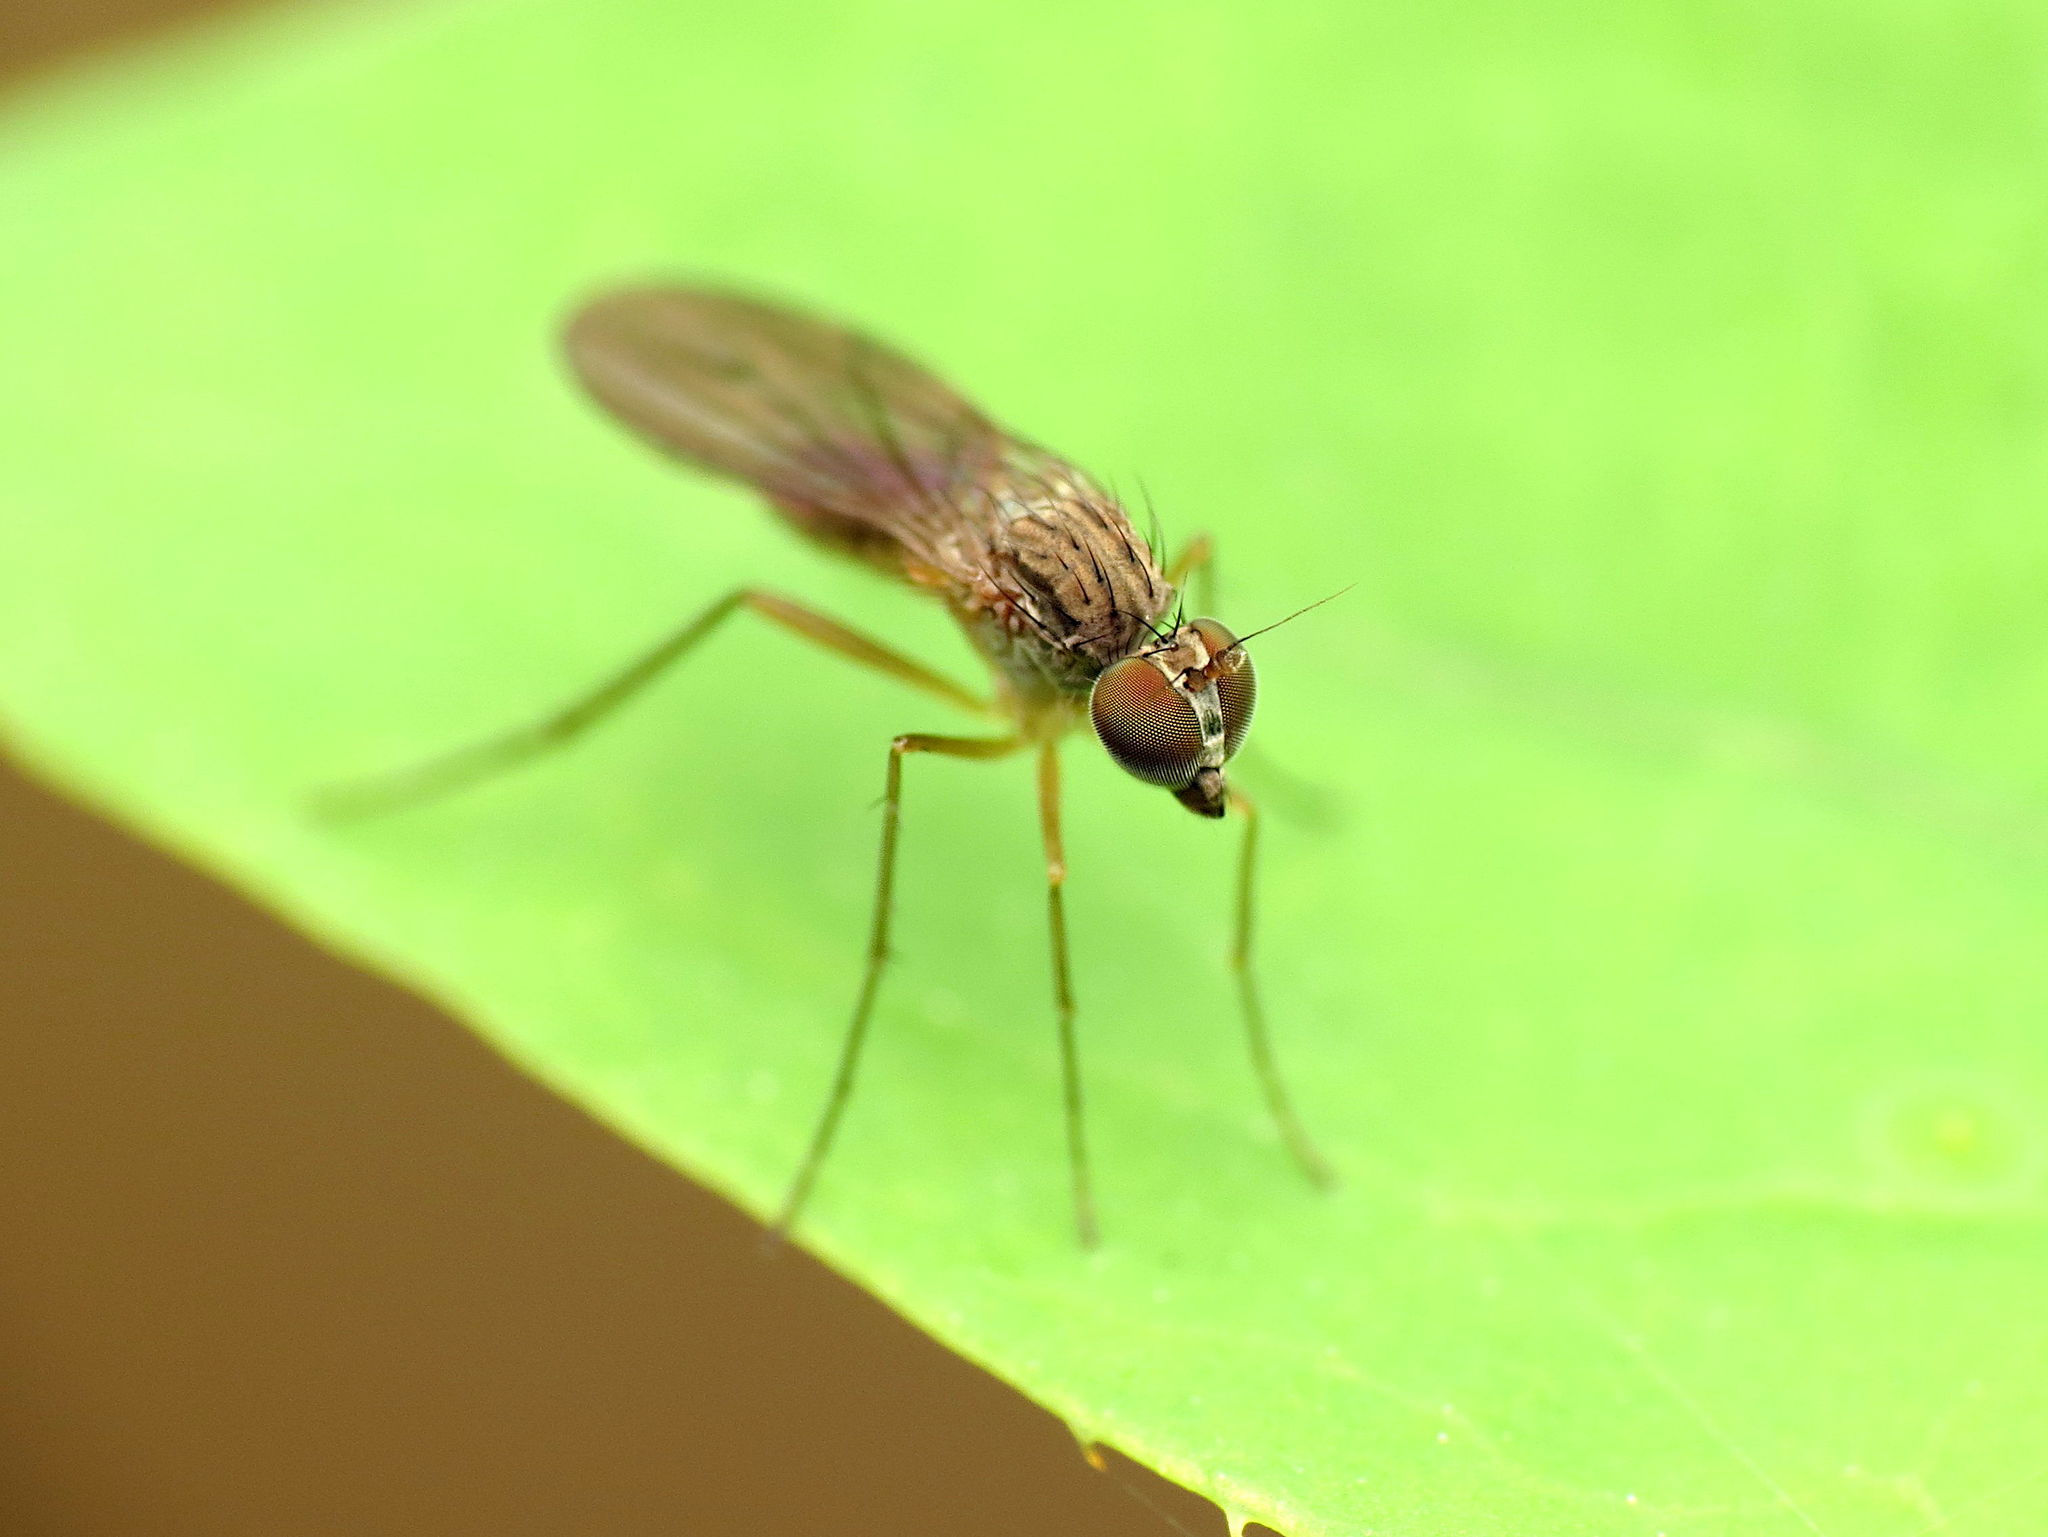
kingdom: Animalia
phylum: Arthropoda
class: Insecta
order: Diptera
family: Dolichopodidae
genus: Sympycnus
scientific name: Sympycnus lineatus
